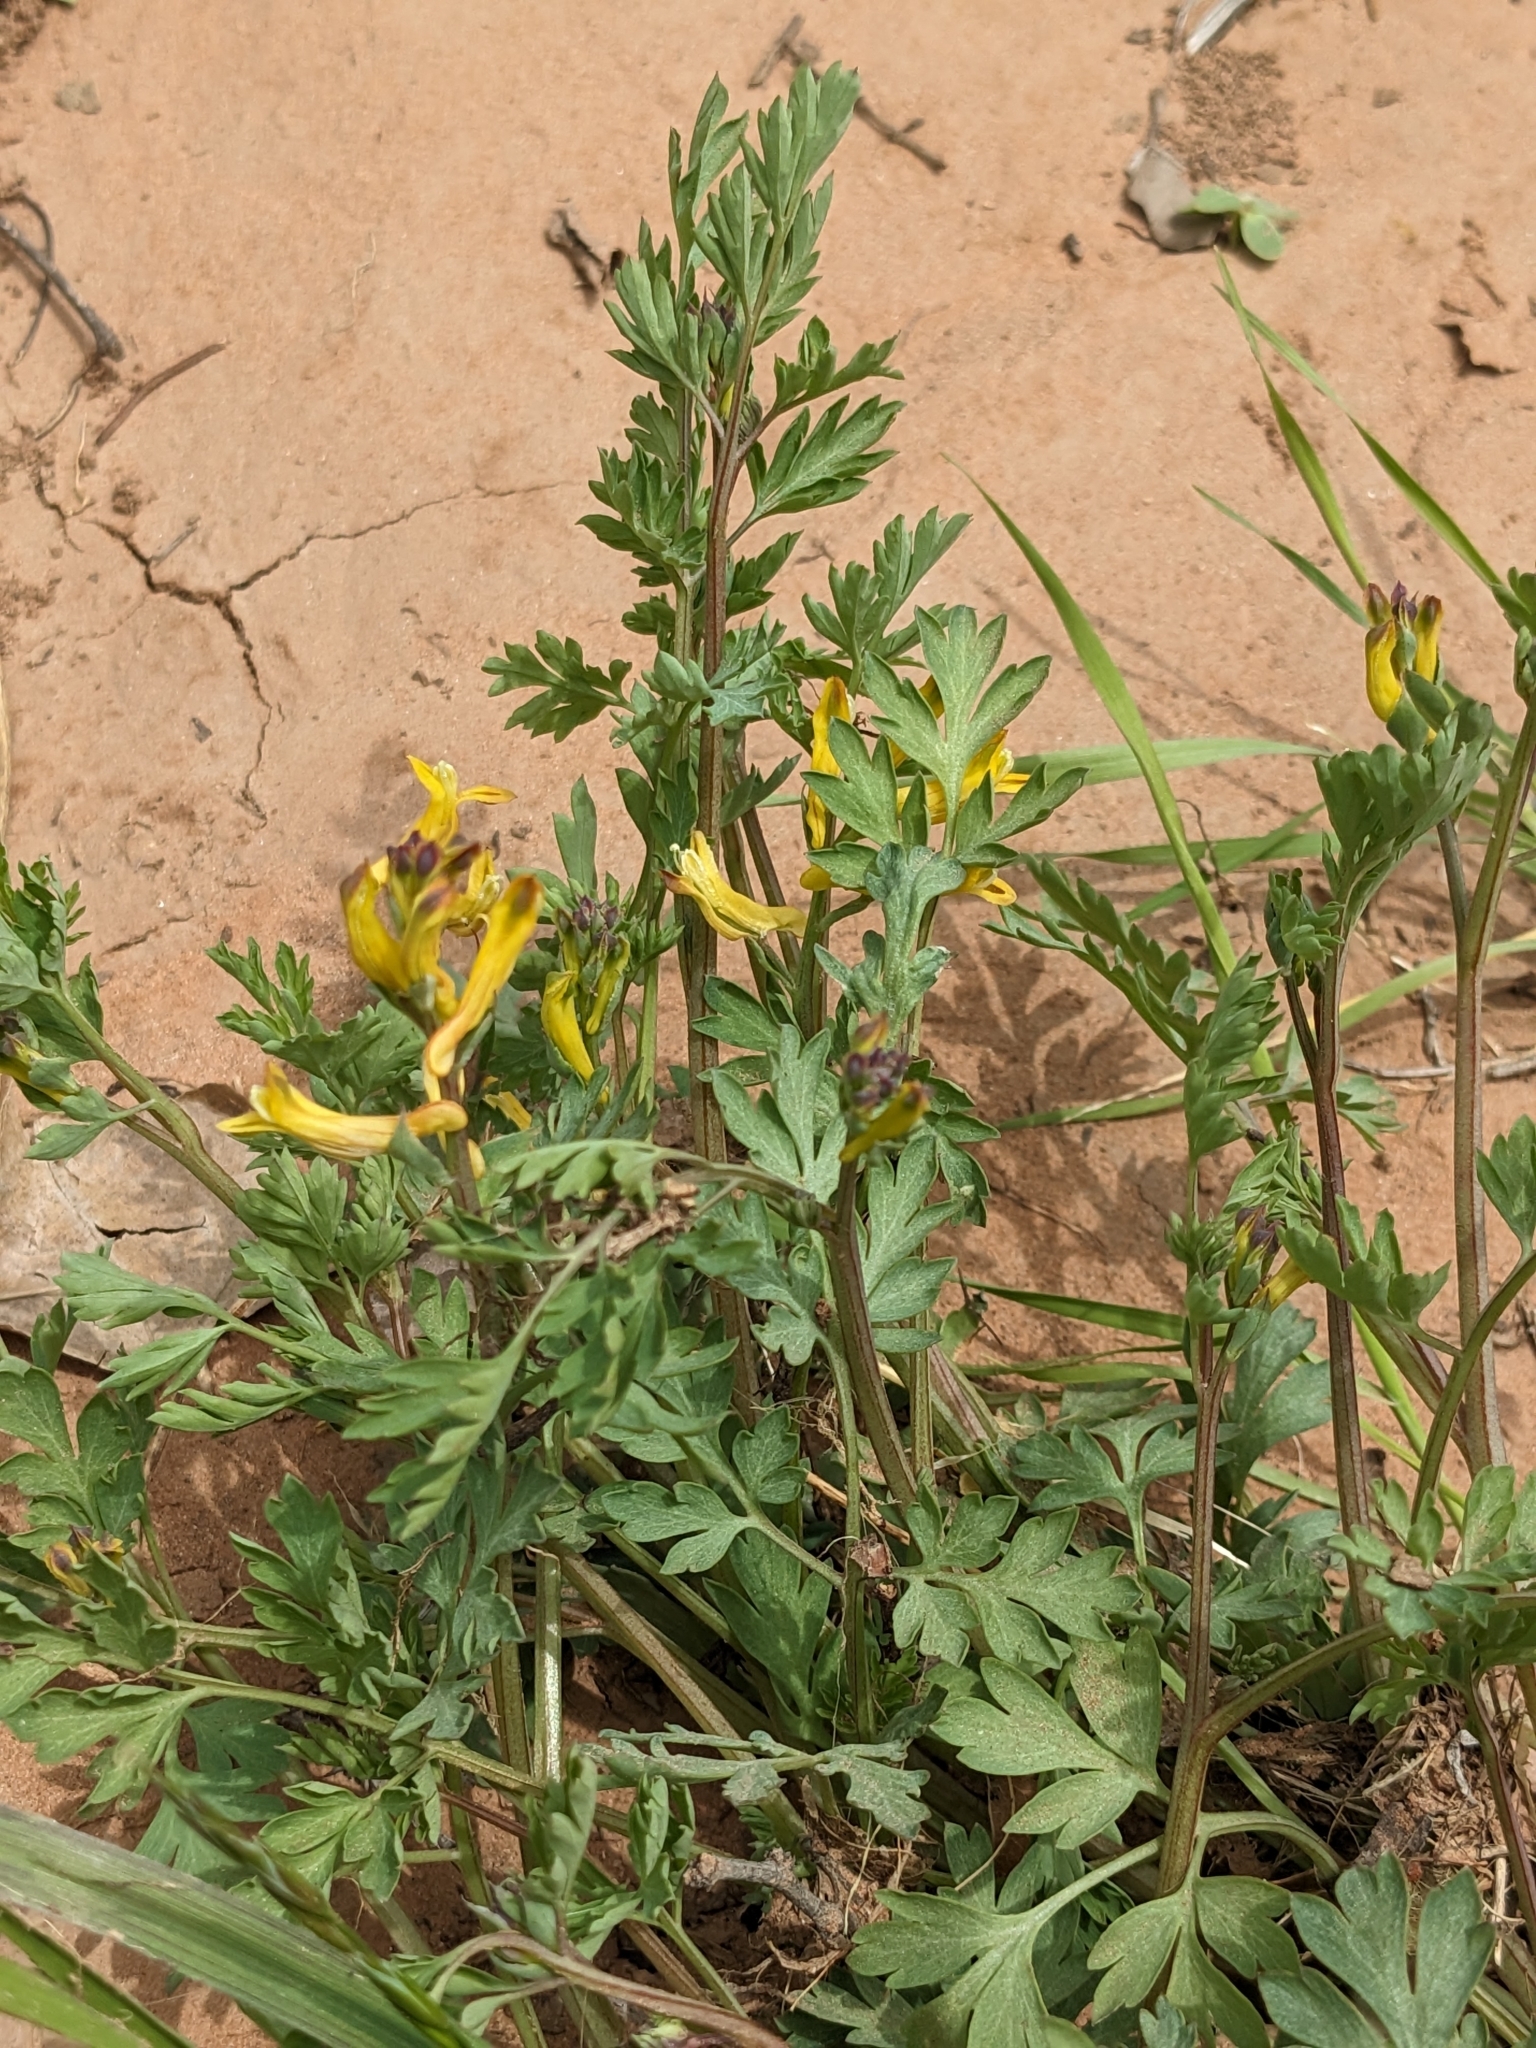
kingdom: Plantae
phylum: Tracheophyta
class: Magnoliopsida
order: Ranunculales
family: Papaveraceae
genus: Corydalis
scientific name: Corydalis aurea
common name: Golden corydalis
